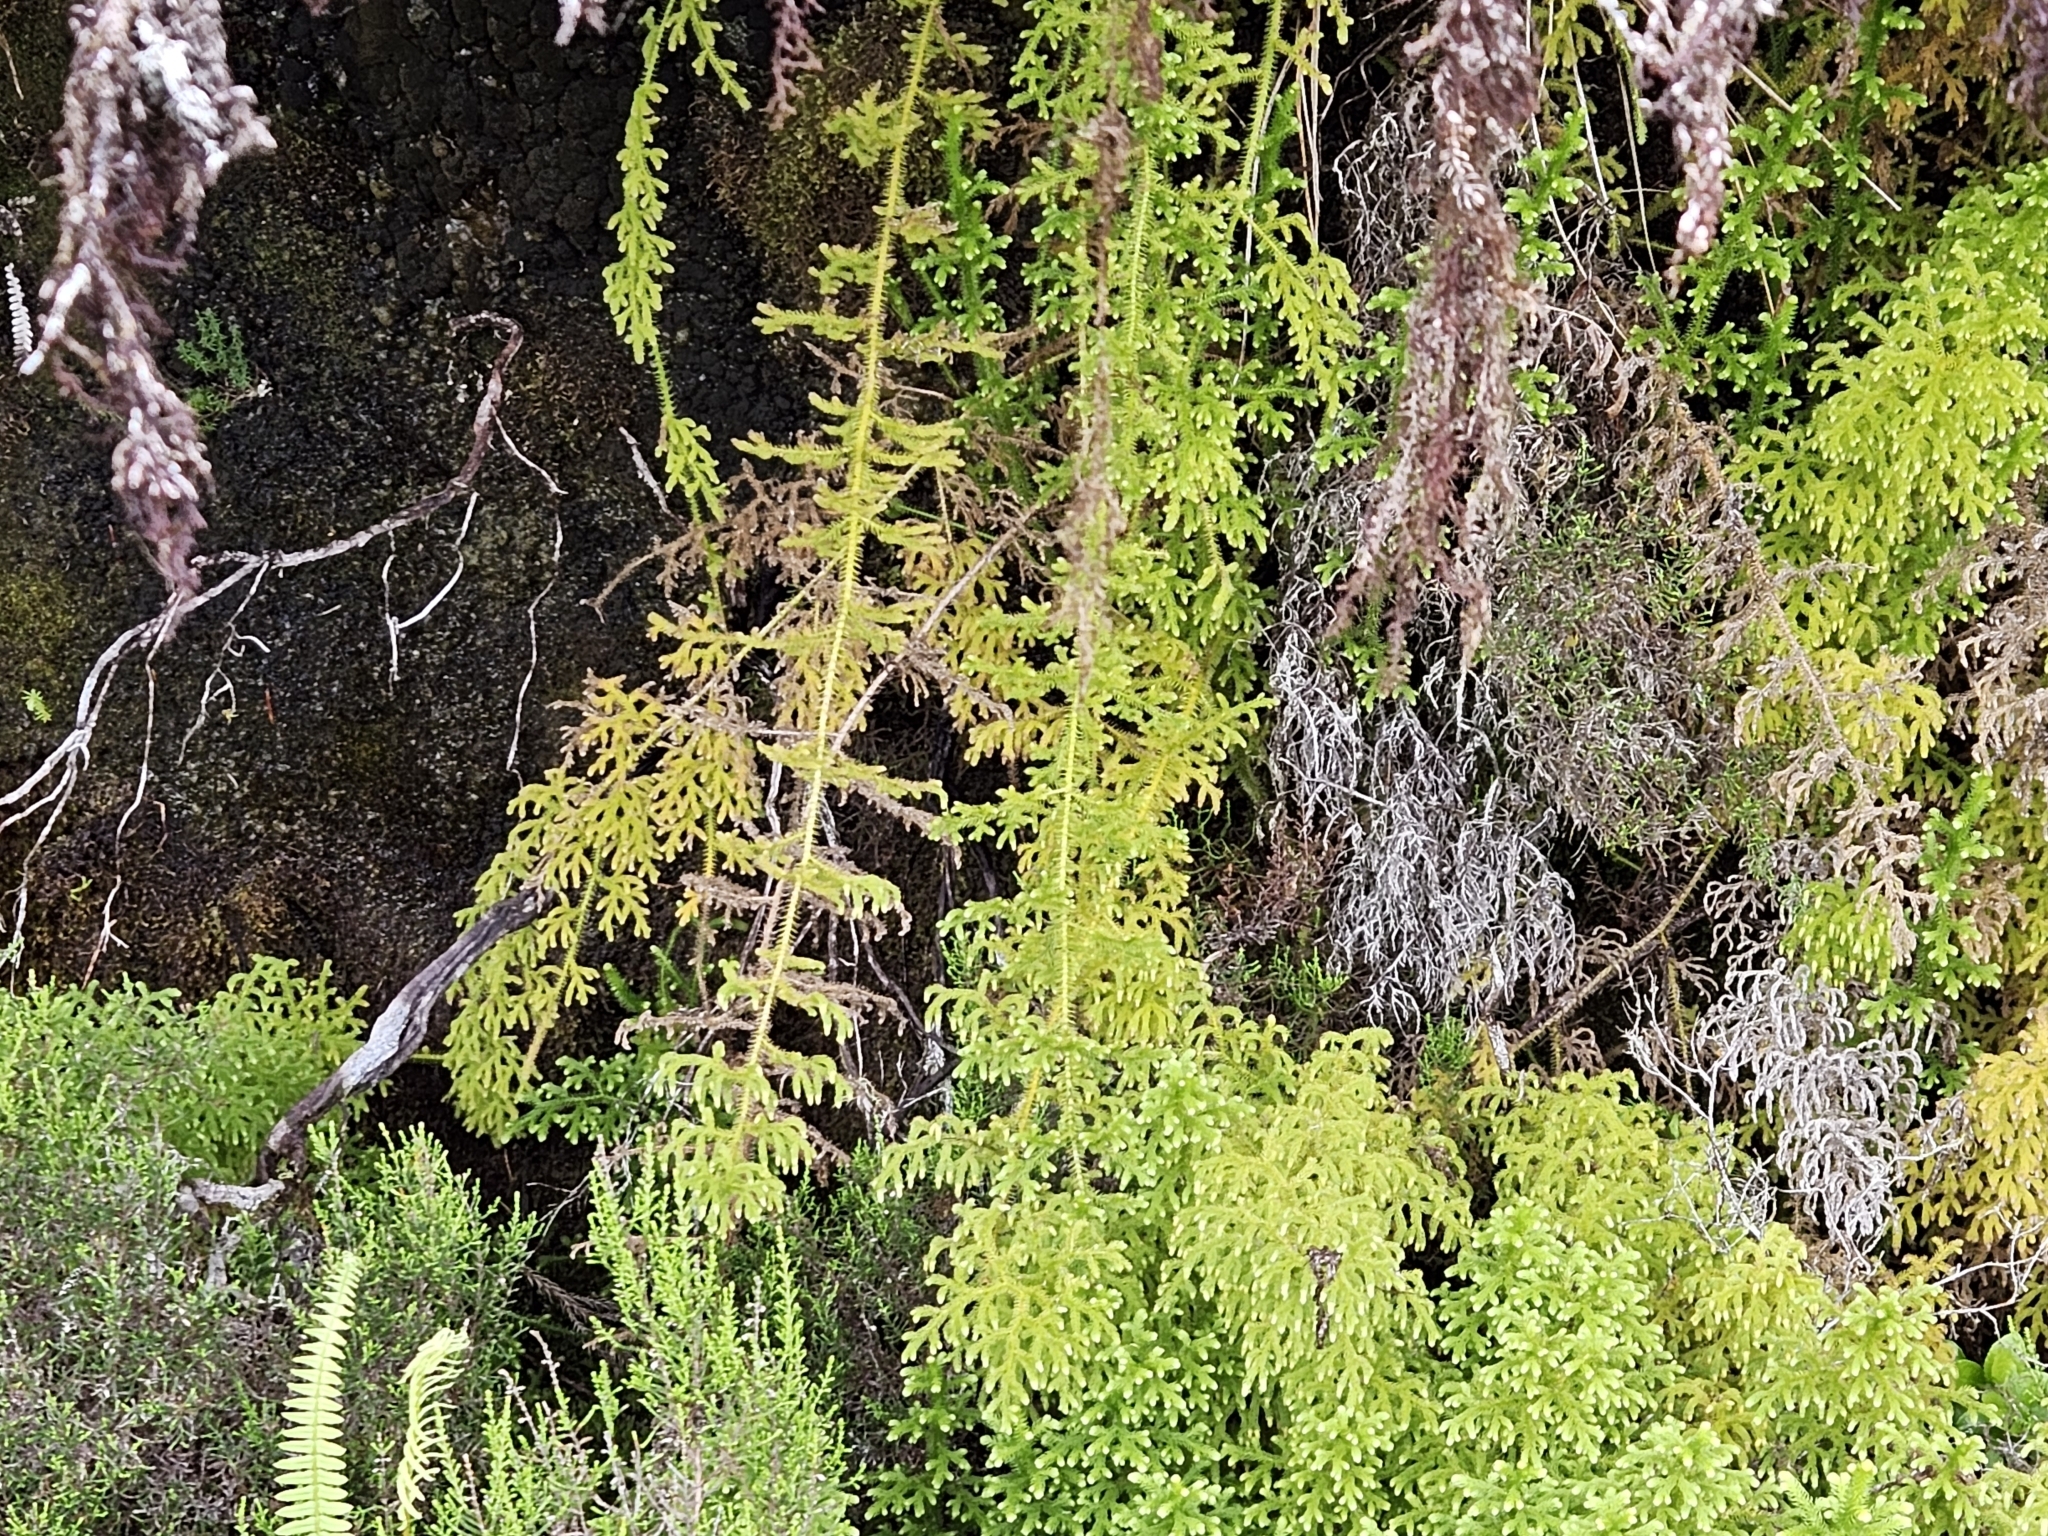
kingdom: Plantae
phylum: Tracheophyta
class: Lycopodiopsida
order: Lycopodiales
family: Lycopodiaceae
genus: Palhinhaea
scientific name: Palhinhaea cernua
